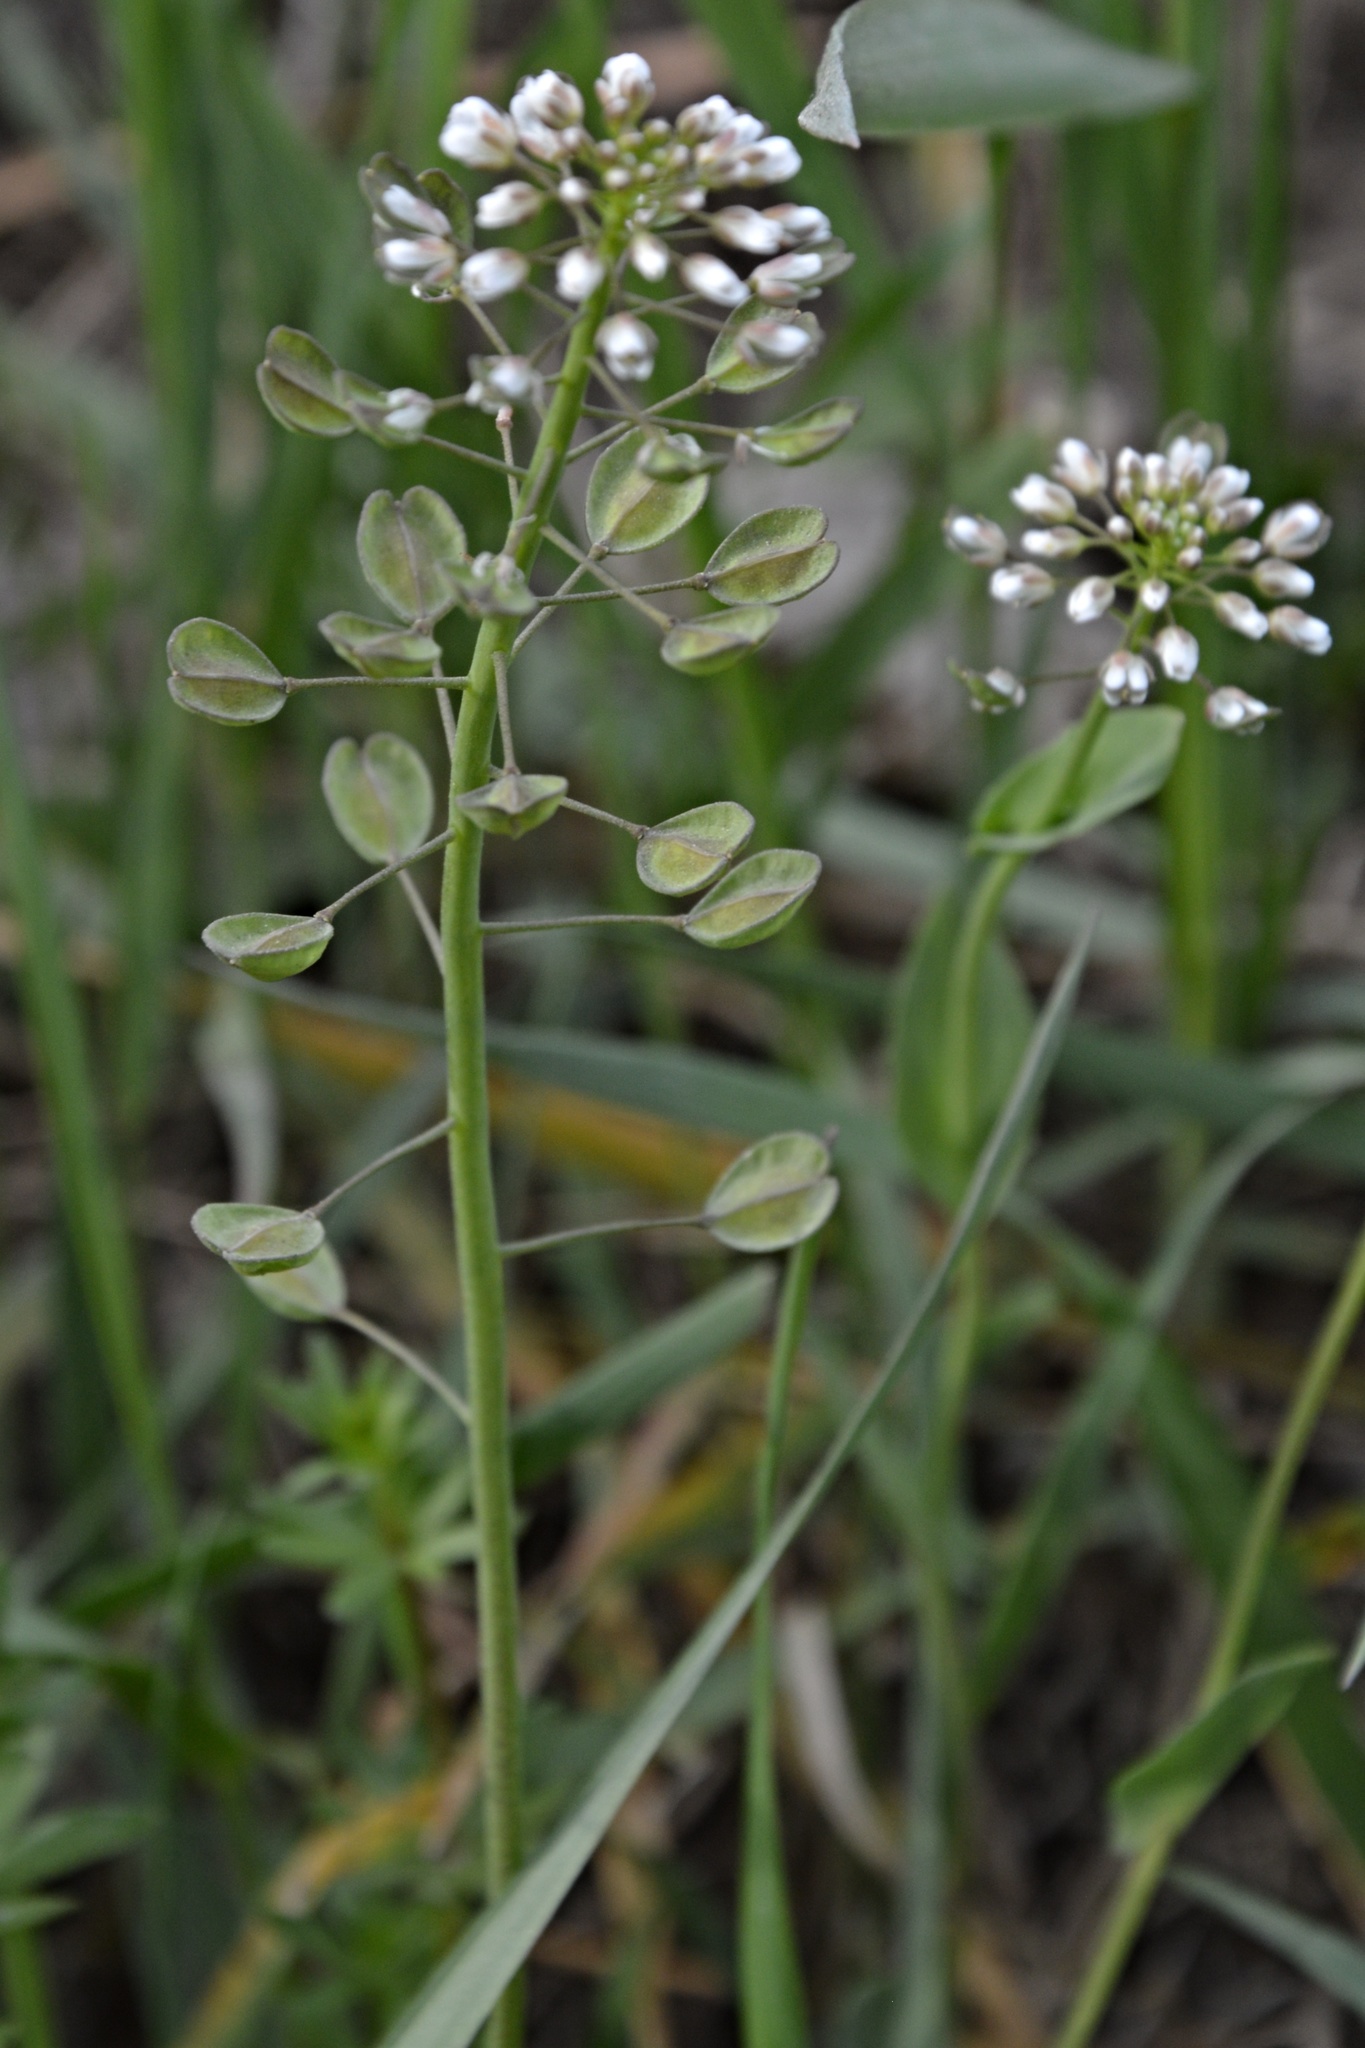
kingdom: Plantae
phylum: Tracheophyta
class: Magnoliopsida
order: Brassicales
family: Brassicaceae
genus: Noccaea
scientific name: Noccaea perfoliata
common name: Perfoliate pennycress
